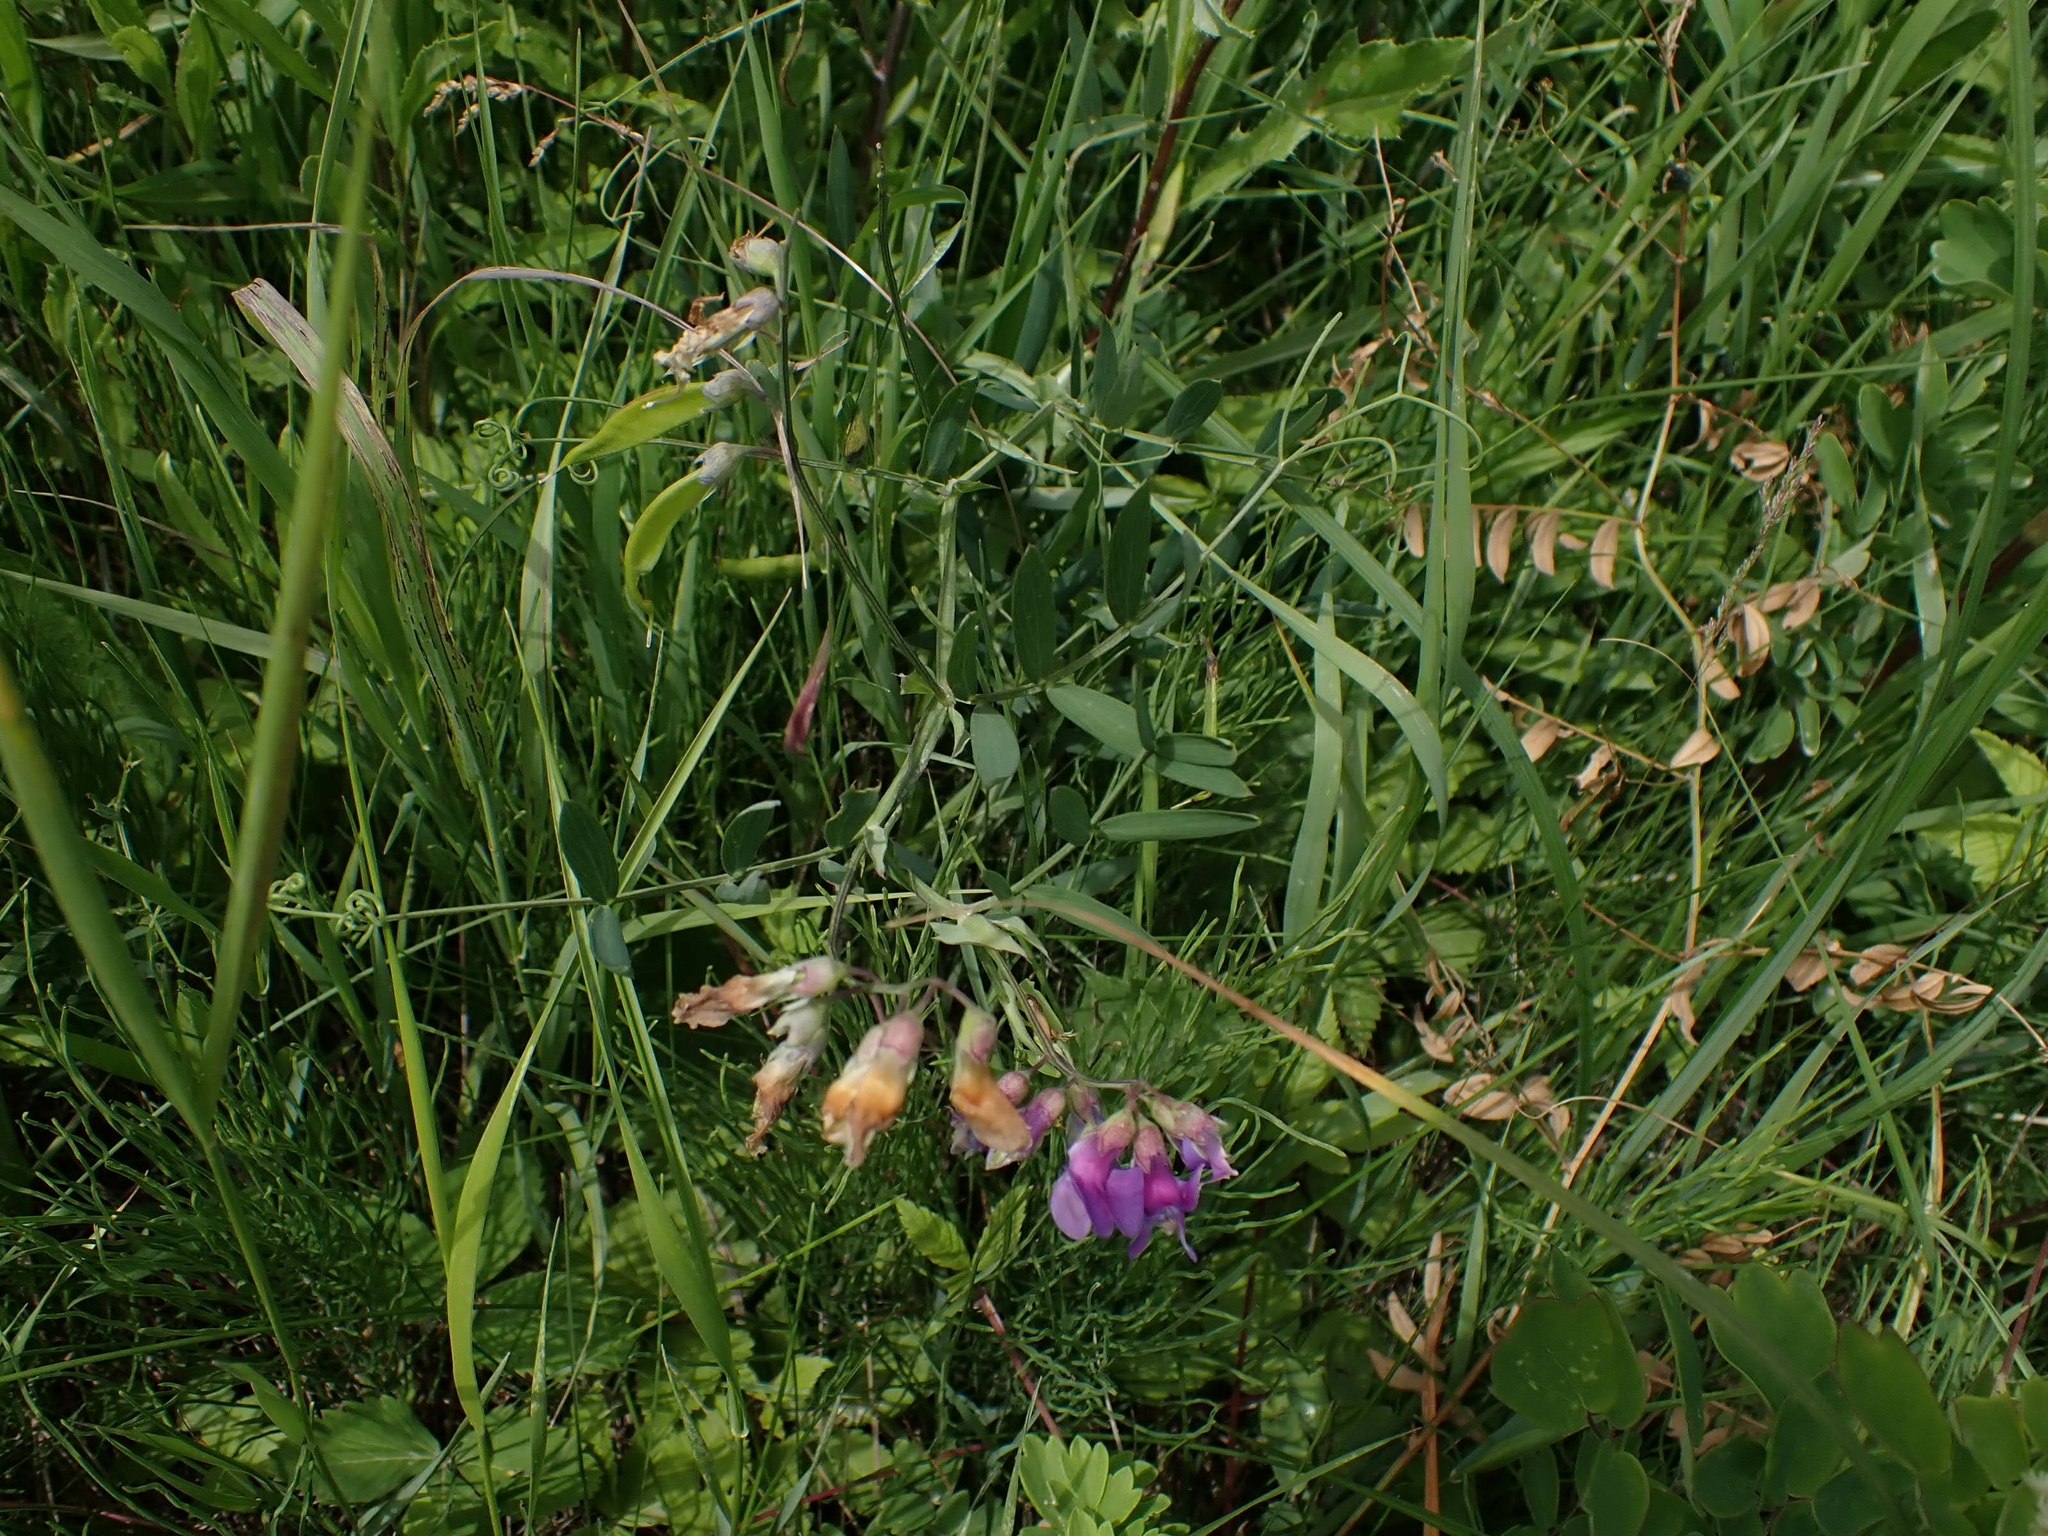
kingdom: Plantae
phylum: Tracheophyta
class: Magnoliopsida
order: Fabales
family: Fabaceae
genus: Lathyrus
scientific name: Lathyrus palustris
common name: Marsh pea
